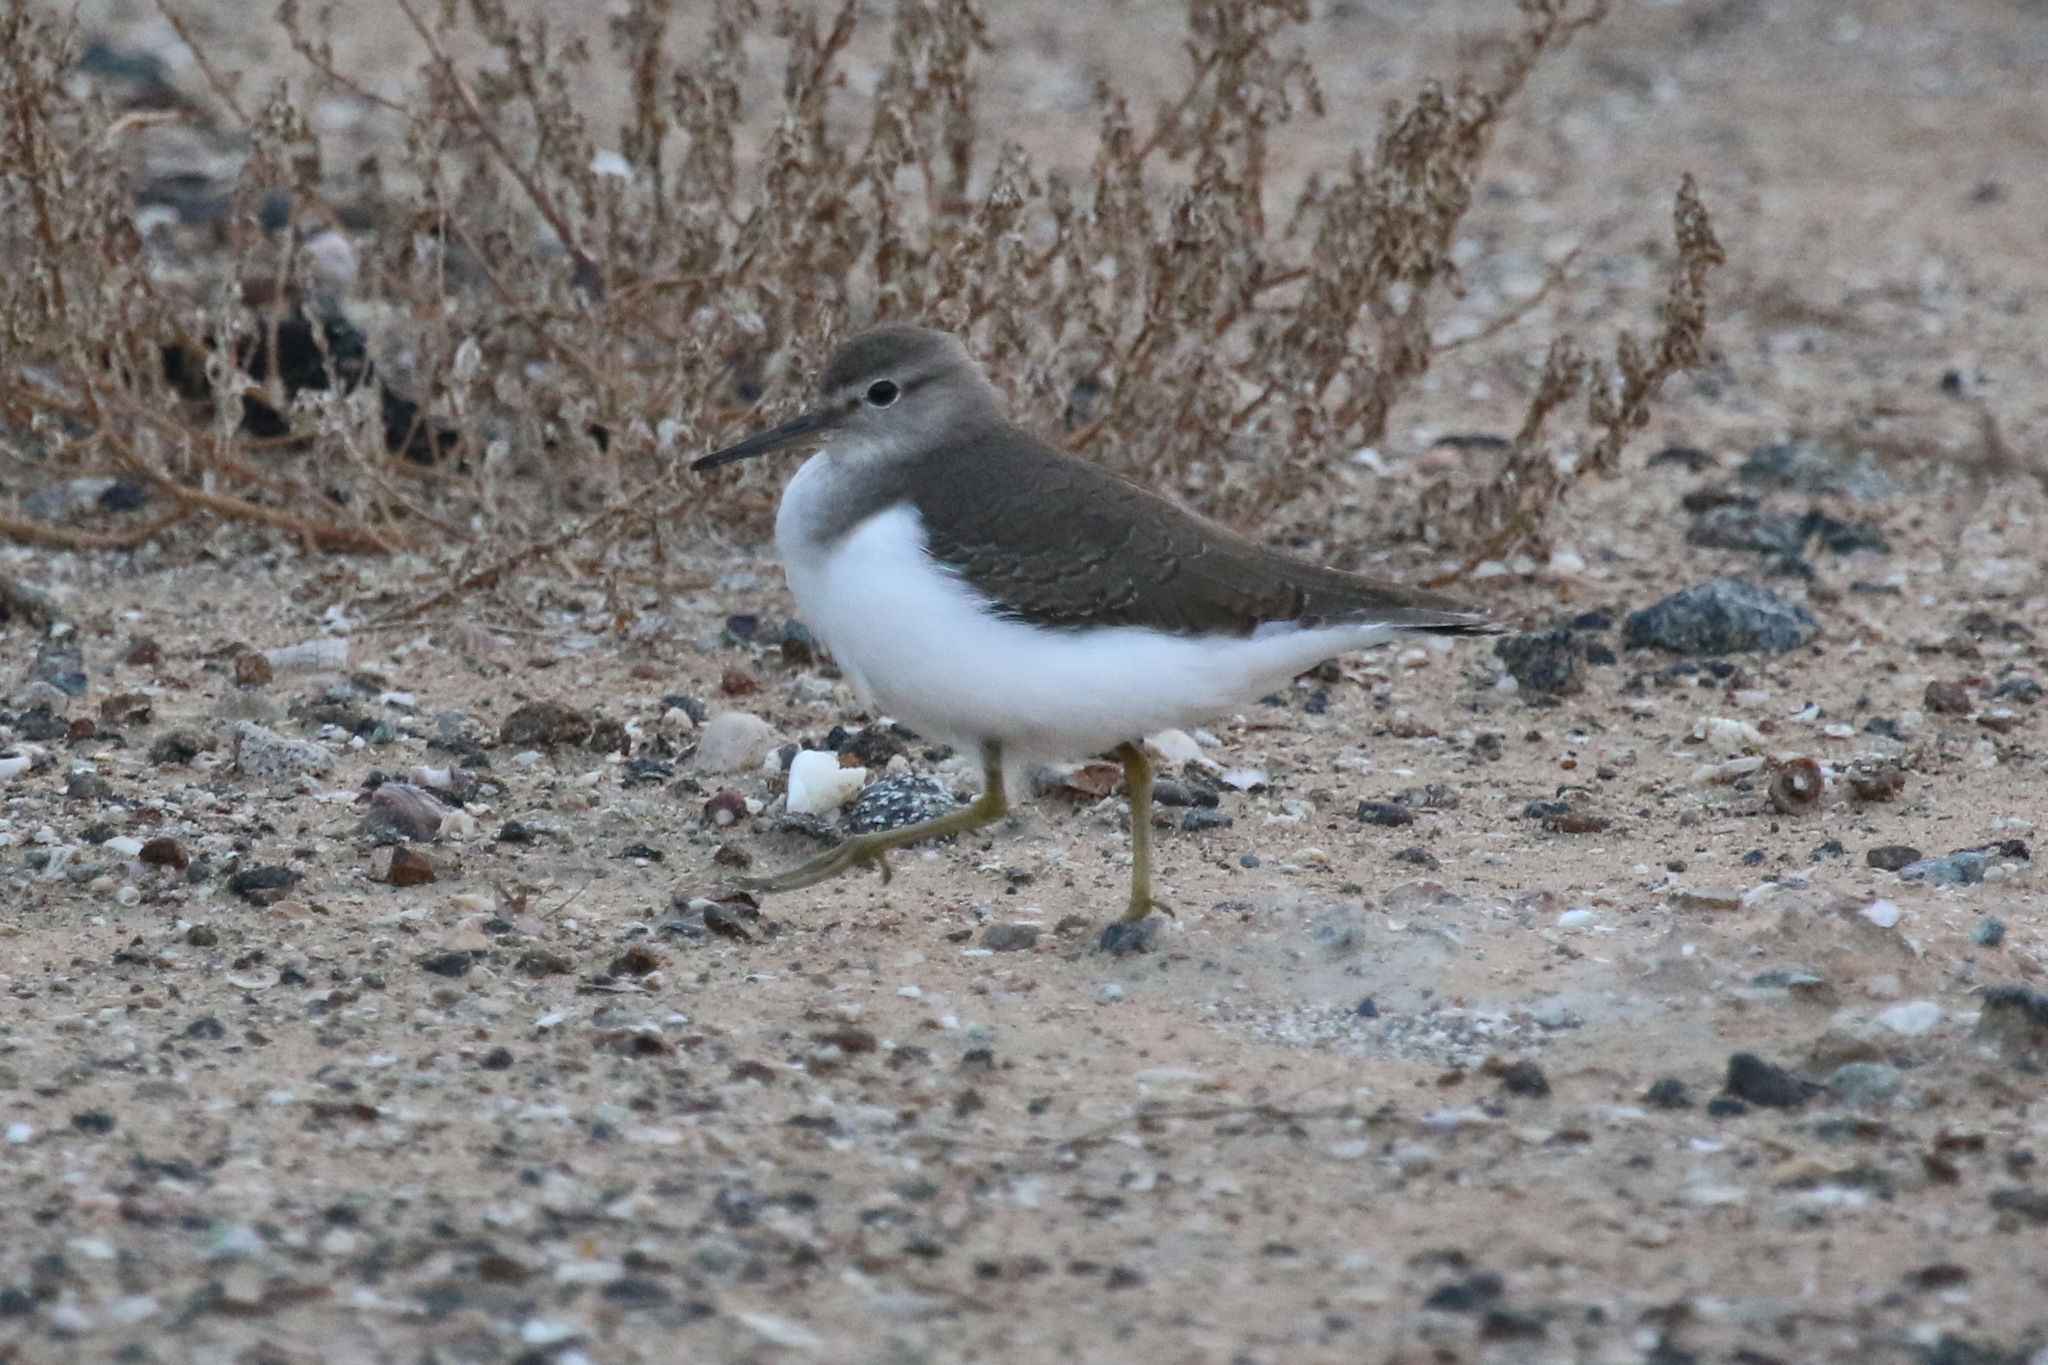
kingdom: Animalia
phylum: Chordata
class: Aves
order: Charadriiformes
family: Scolopacidae
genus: Actitis
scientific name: Actitis hypoleucos
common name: Common sandpiper
